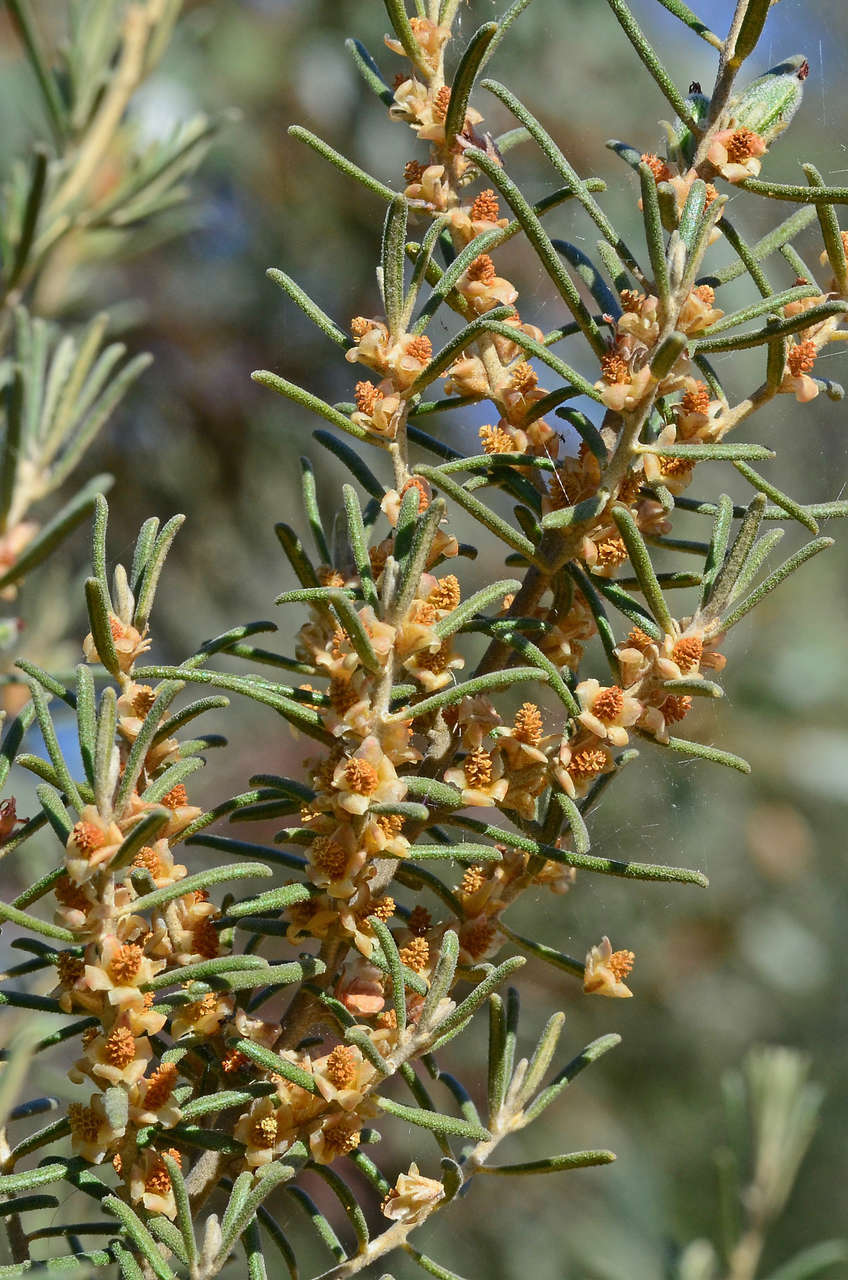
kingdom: Plantae
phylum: Tracheophyta
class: Magnoliopsida
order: Malpighiales
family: Euphorbiaceae
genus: Bertya
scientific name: Bertya tasmanica
